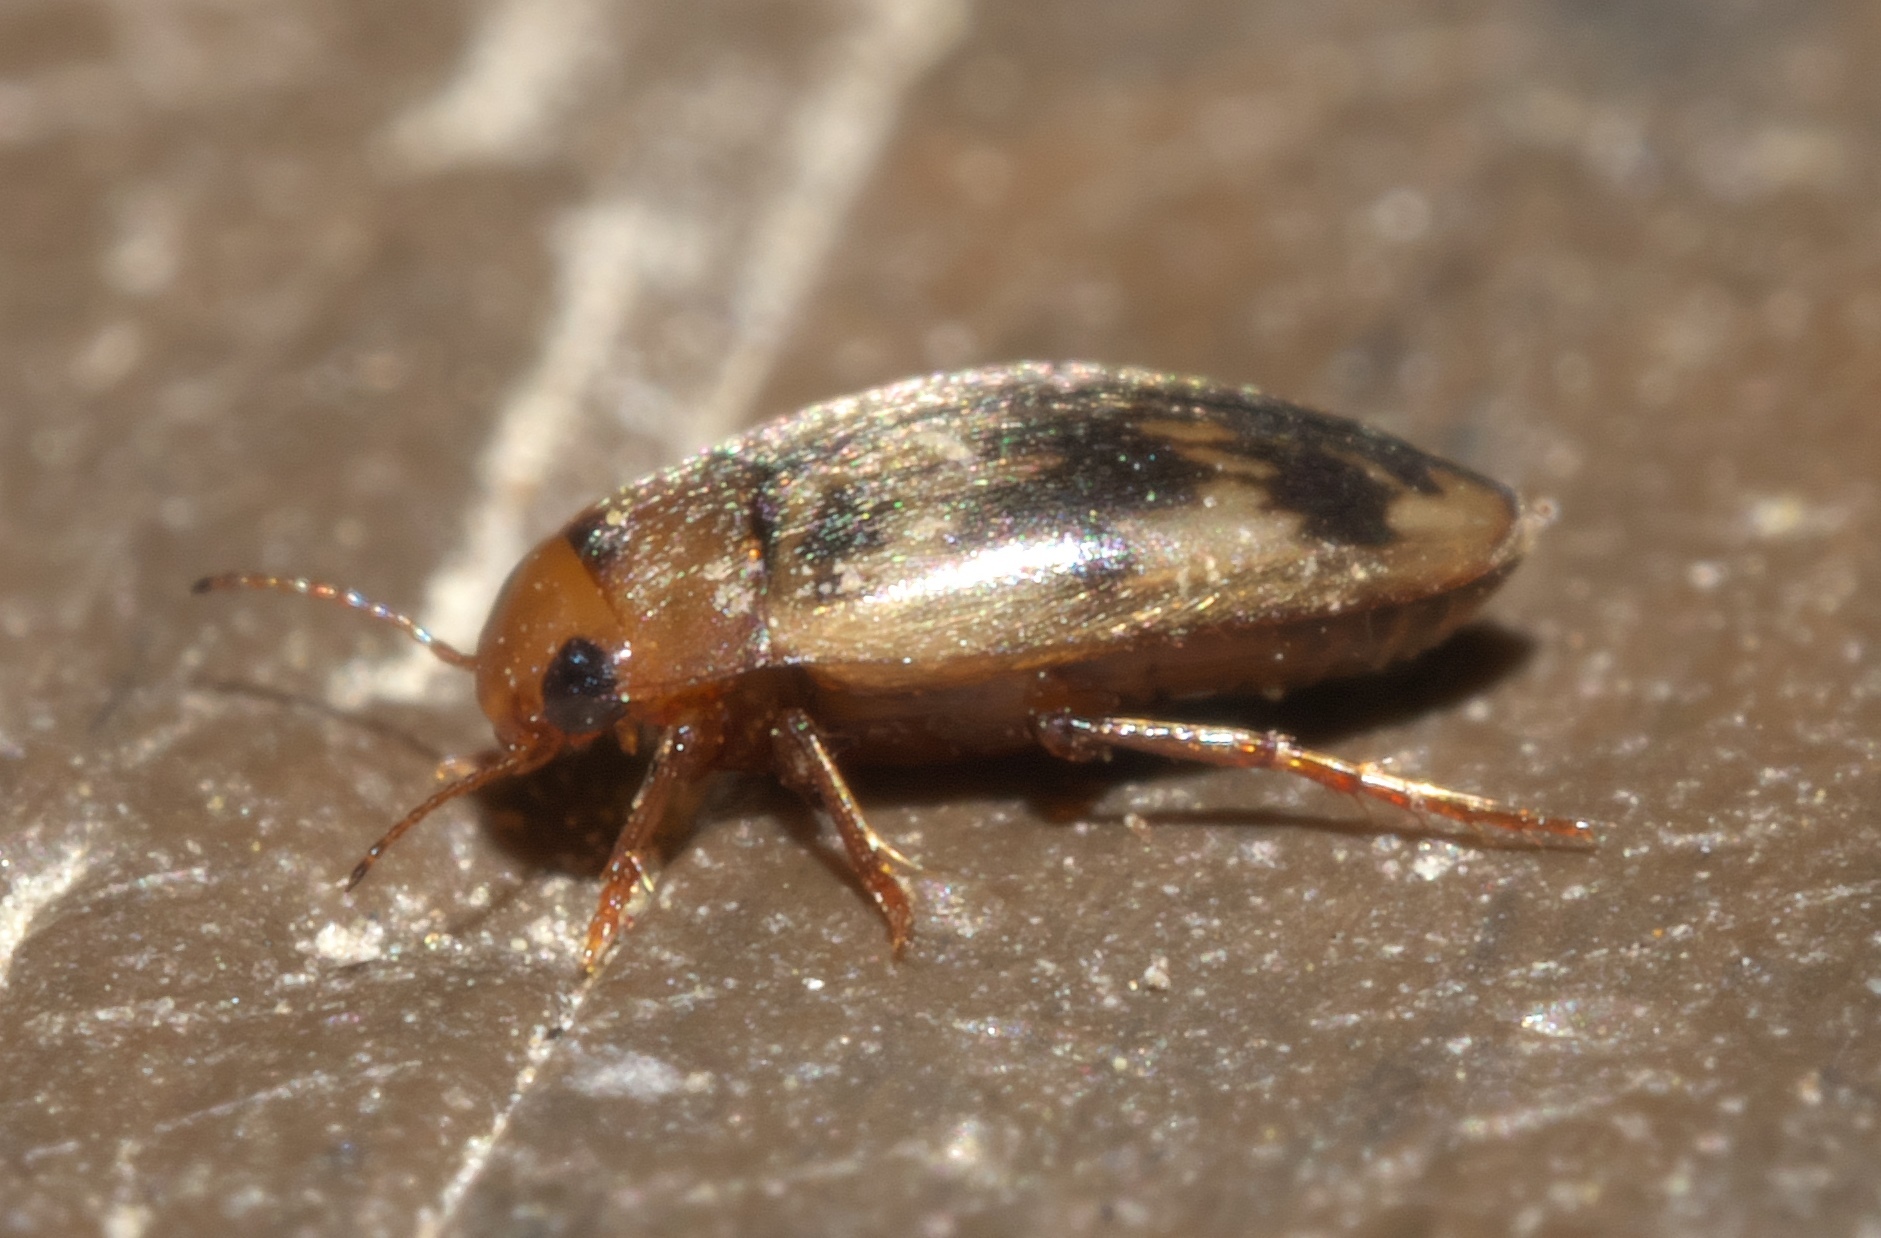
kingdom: Animalia
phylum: Arthropoda
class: Insecta
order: Coleoptera
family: Dytiscidae
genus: Neoporus
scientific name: Neoporus shermani
